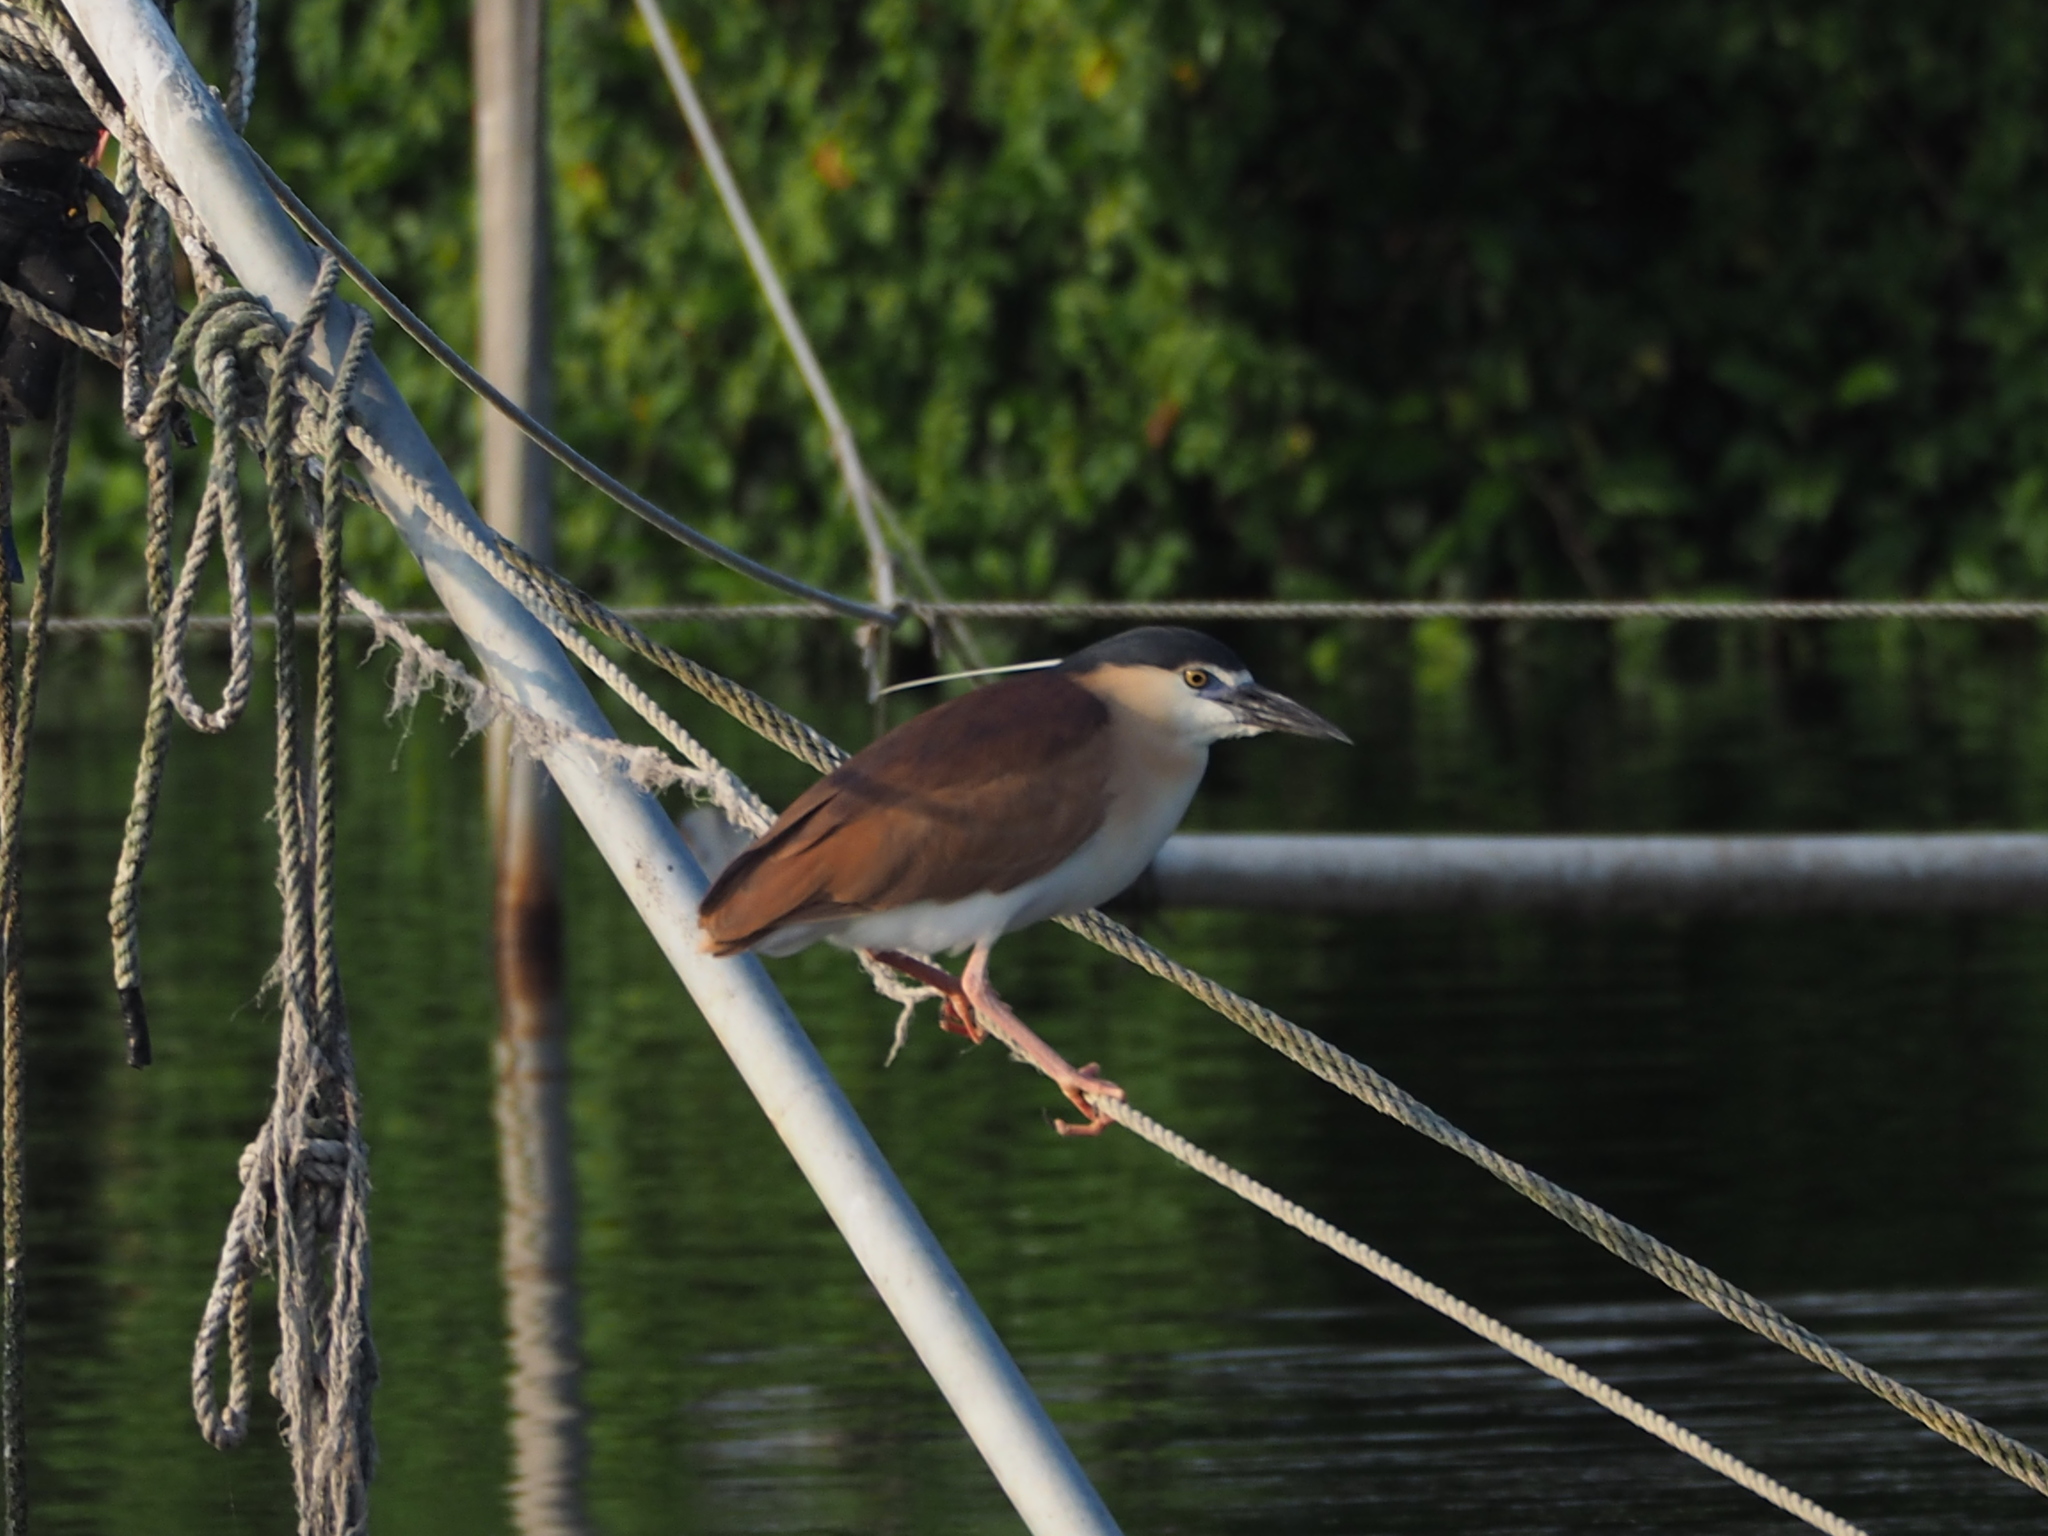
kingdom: Animalia
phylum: Chordata
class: Aves
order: Pelecaniformes
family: Ardeidae
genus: Nycticorax
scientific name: Nycticorax caledonicus
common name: Rufous night-heron
